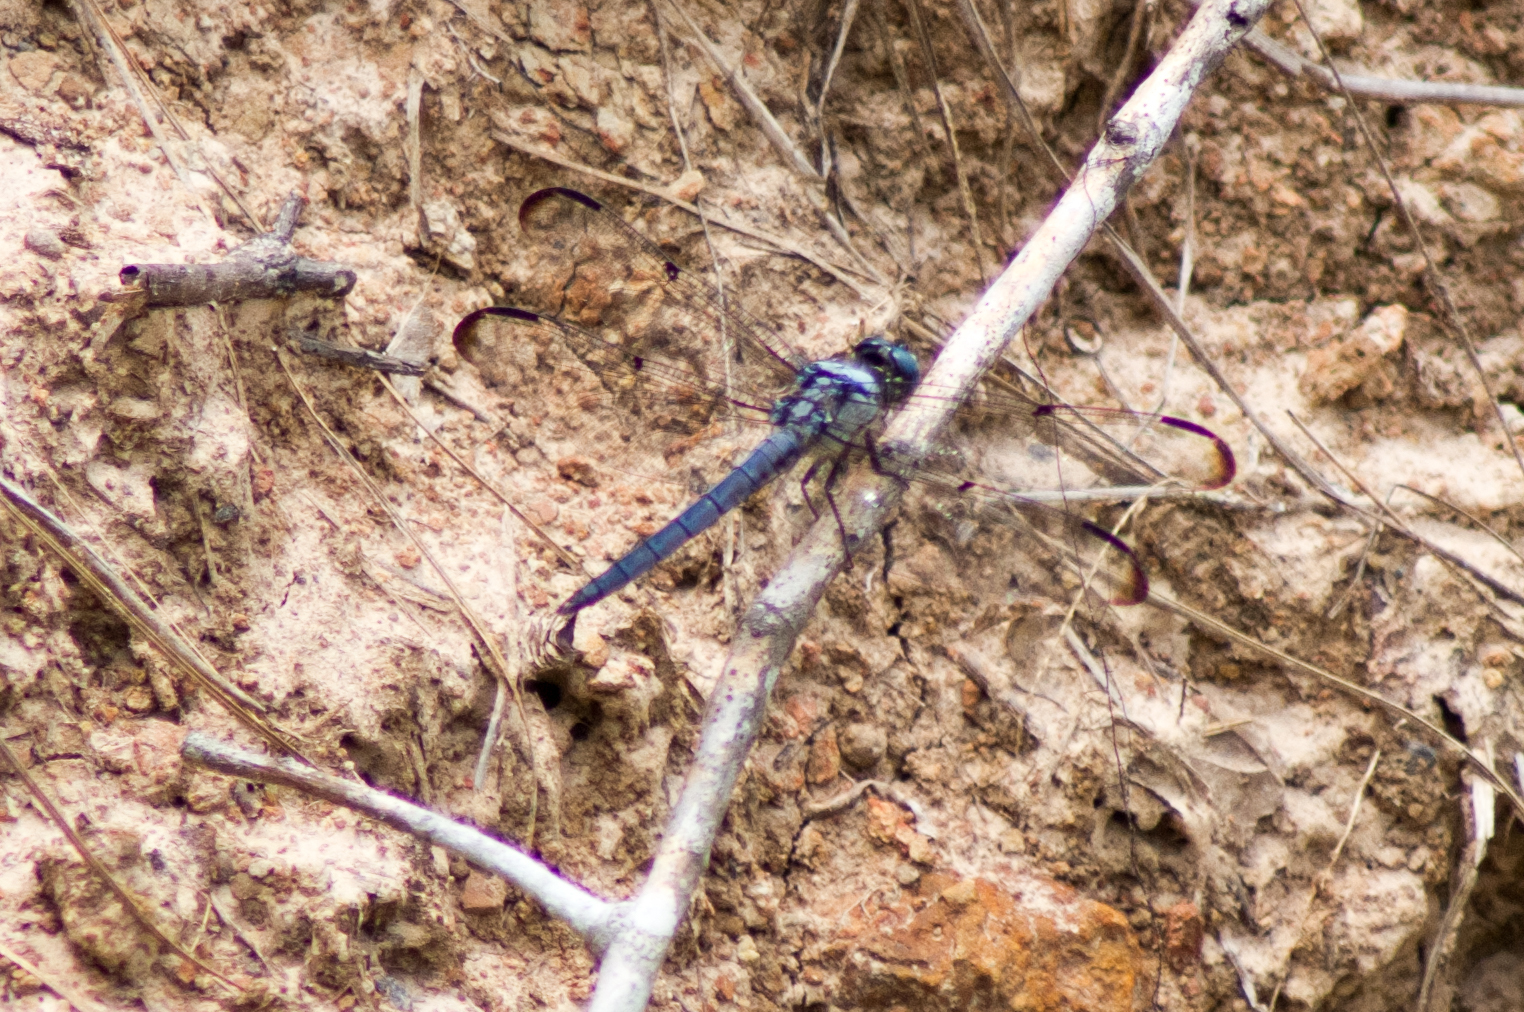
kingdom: Animalia
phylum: Arthropoda
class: Insecta
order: Odonata
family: Libellulidae
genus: Libellula
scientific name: Libellula vibrans
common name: Great blue skimmer
